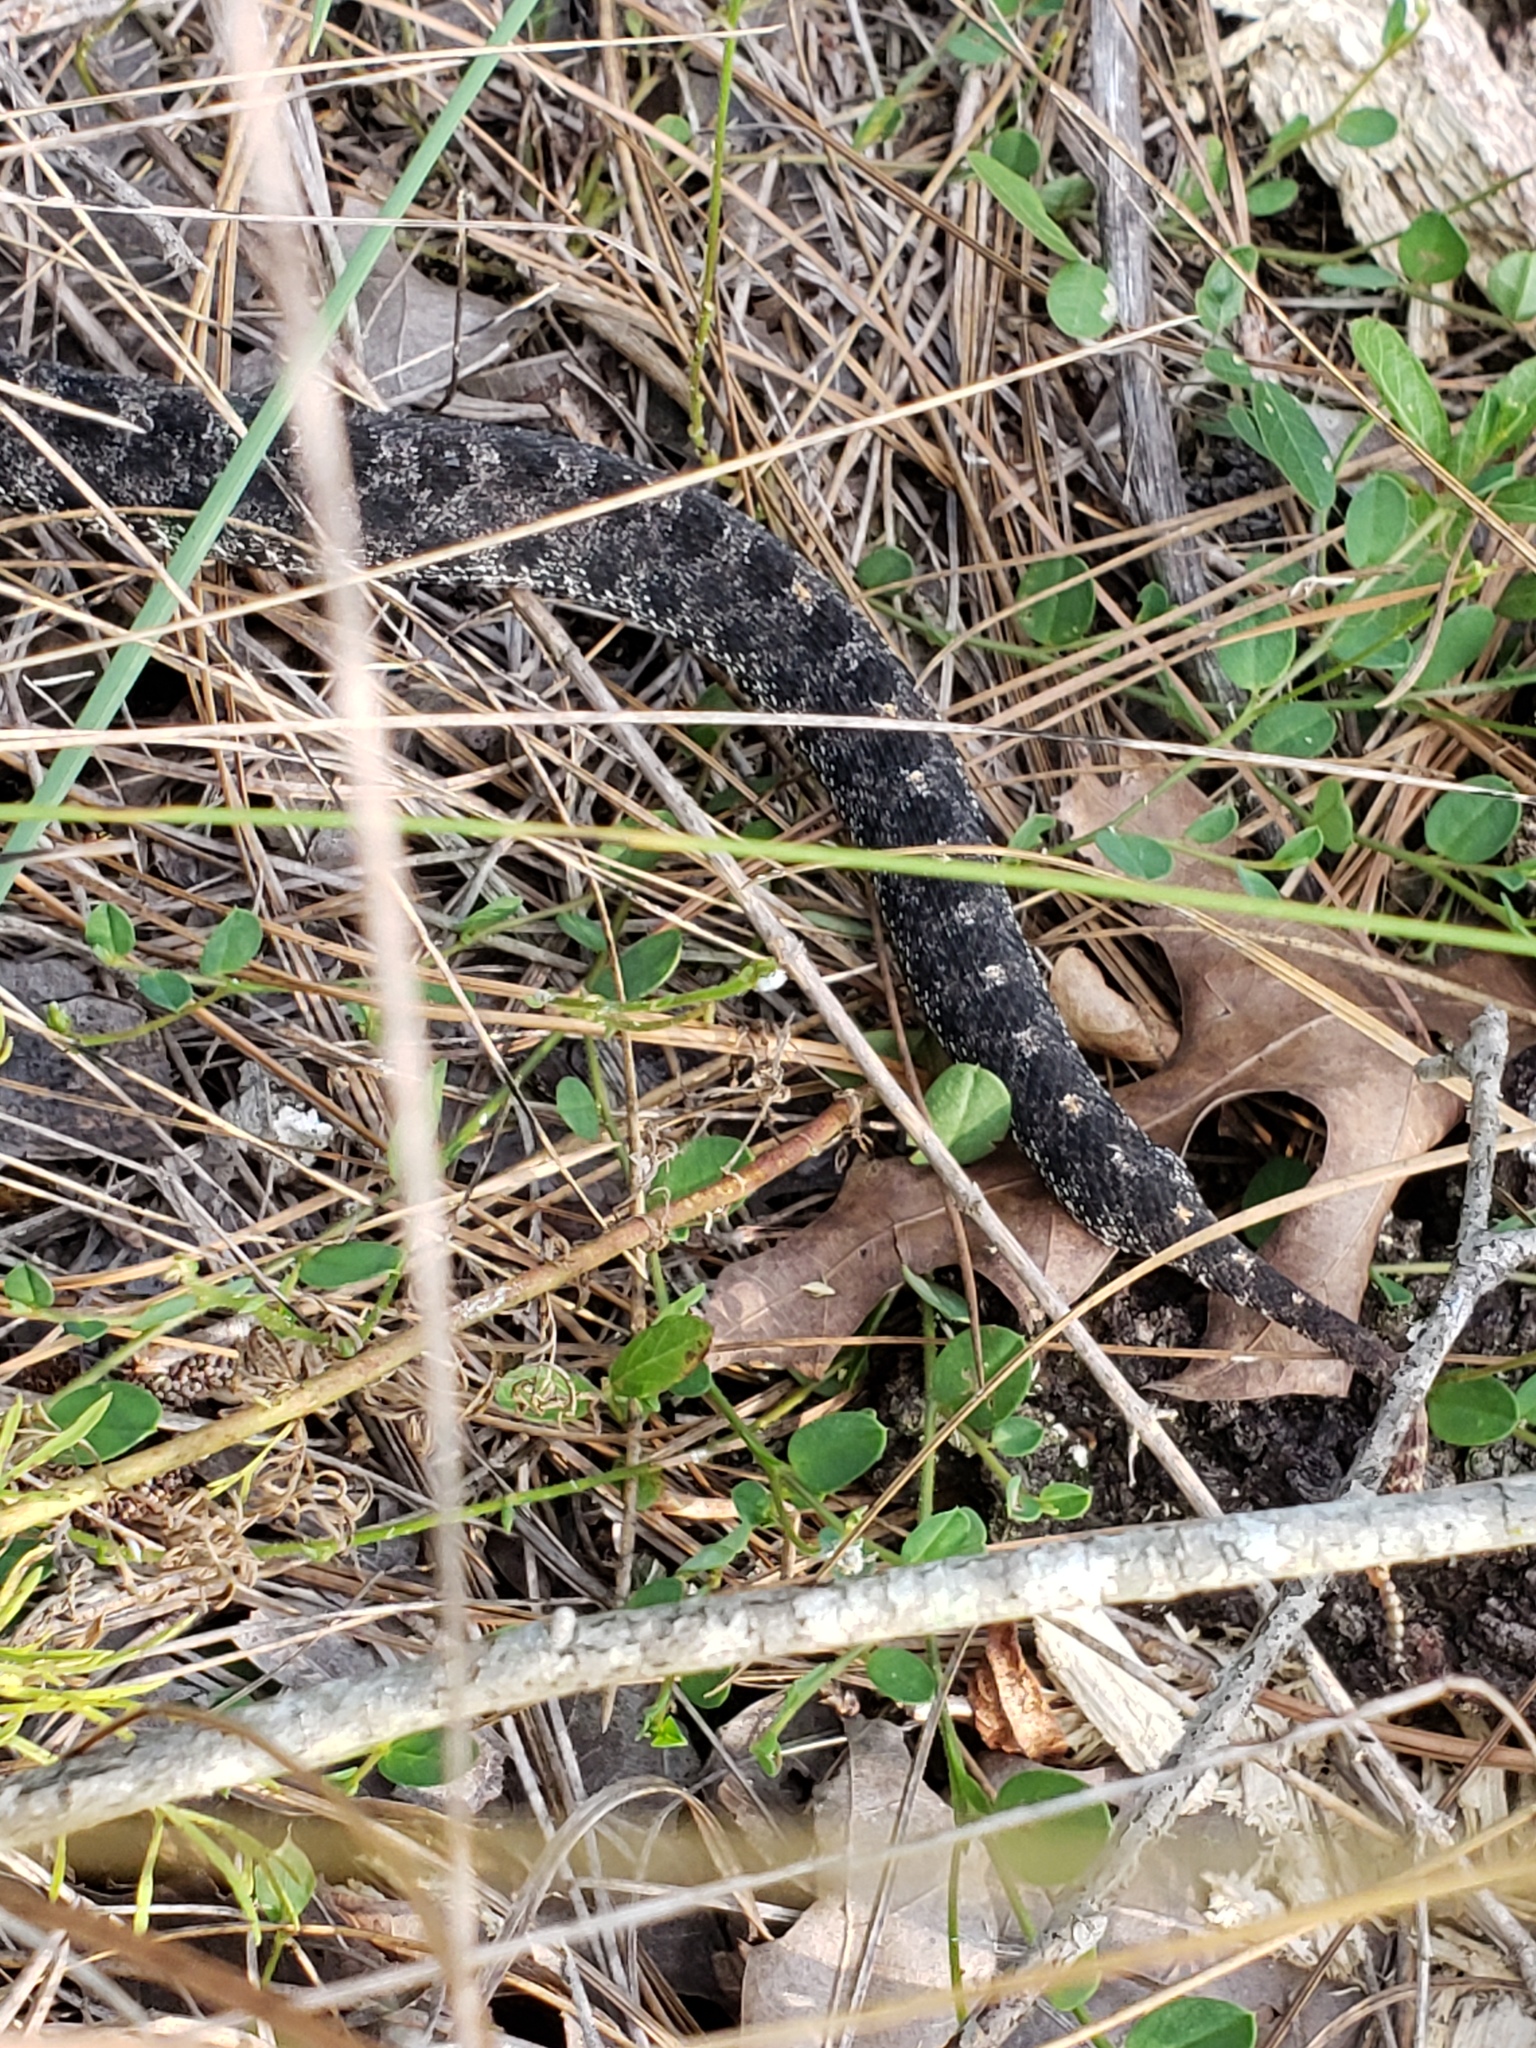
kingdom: Animalia
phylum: Chordata
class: Squamata
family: Viperidae
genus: Sistrurus
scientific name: Sistrurus miliarius
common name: Pygmy rattlesnake
